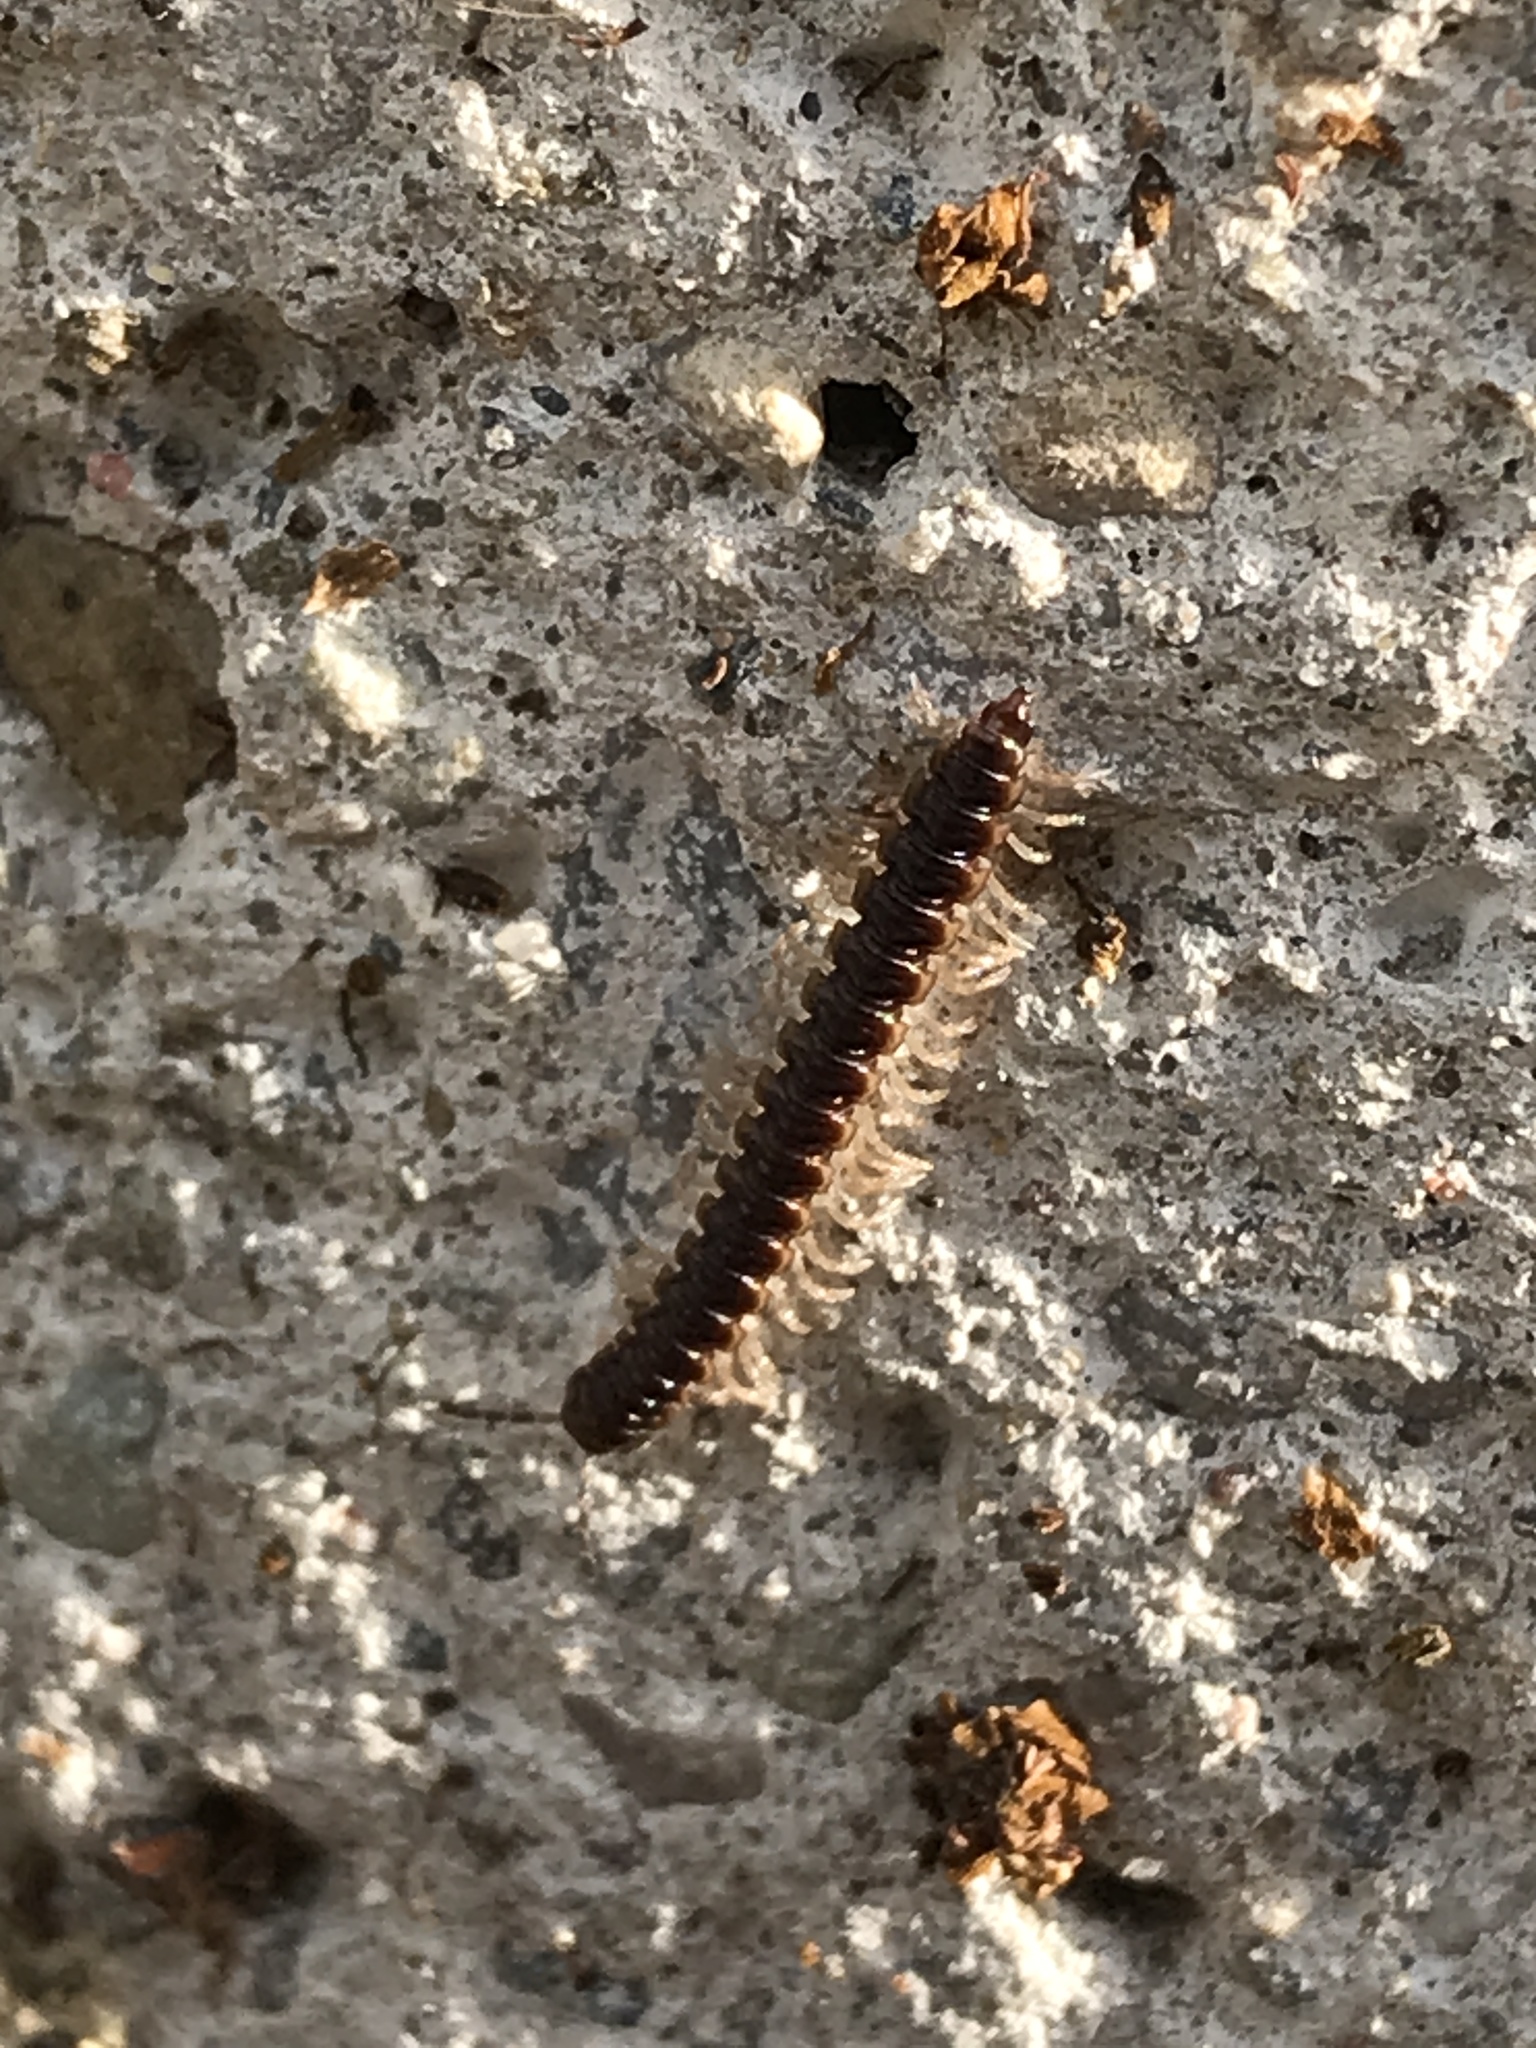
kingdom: Animalia
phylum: Arthropoda
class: Diplopoda
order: Polydesmida
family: Paradoxosomatidae
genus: Oxidus
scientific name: Oxidus gracilis
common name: Greenhouse millipede
